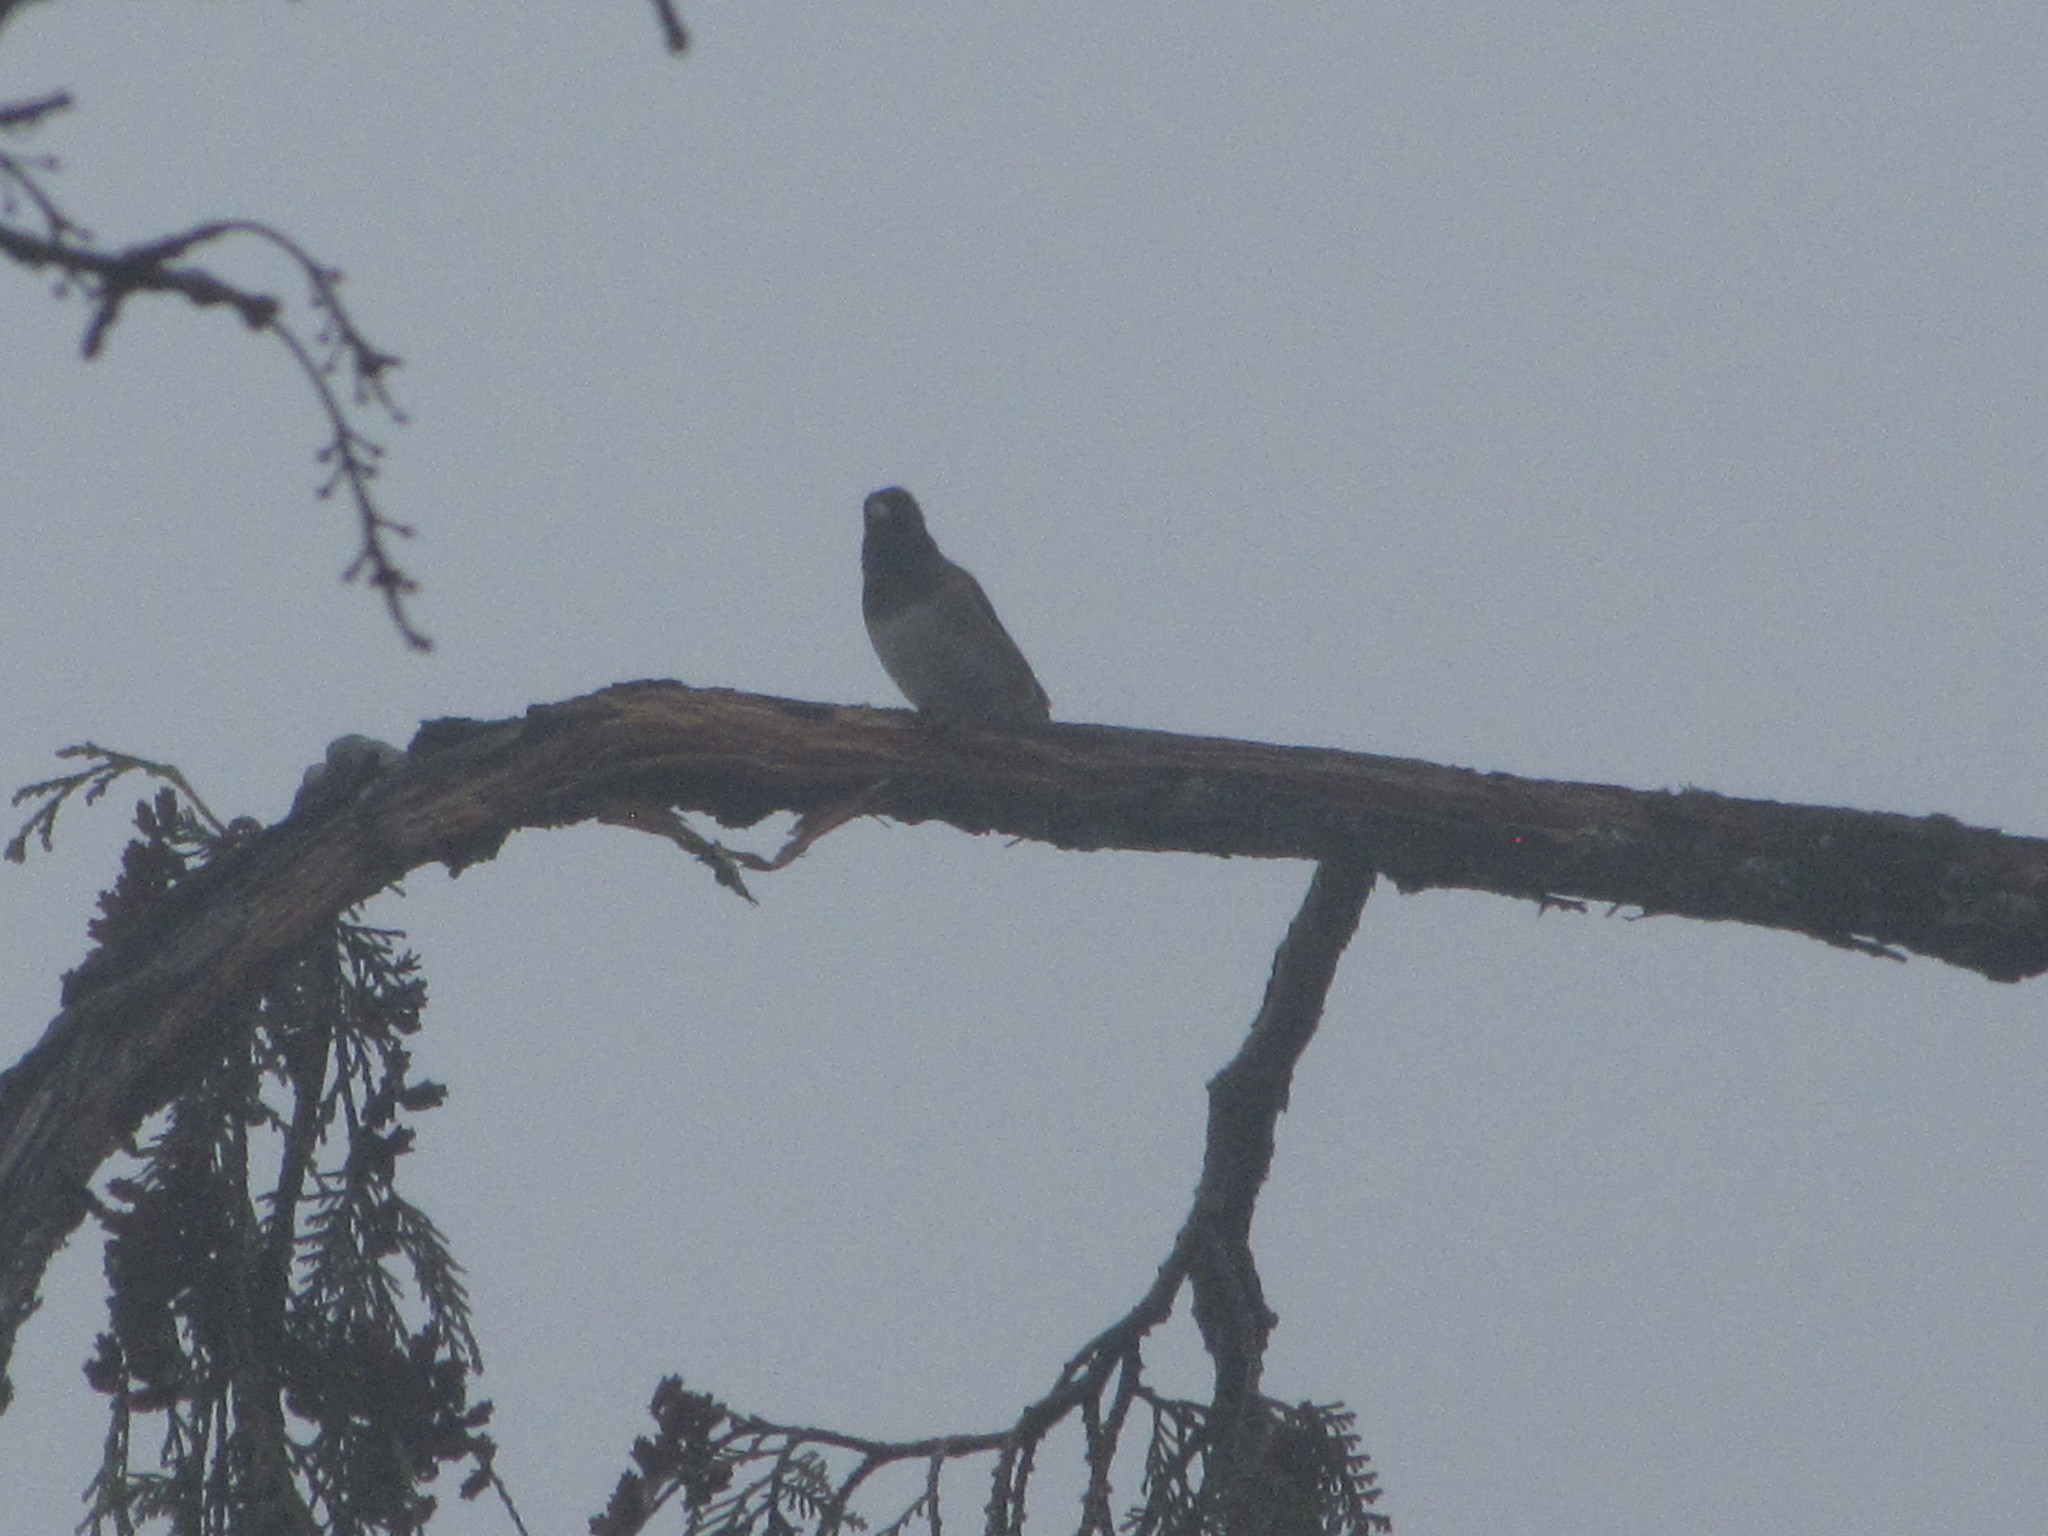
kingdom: Animalia
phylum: Chordata
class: Aves
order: Passeriformes
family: Passerellidae
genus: Junco
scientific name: Junco hyemalis
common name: Dark-eyed junco
